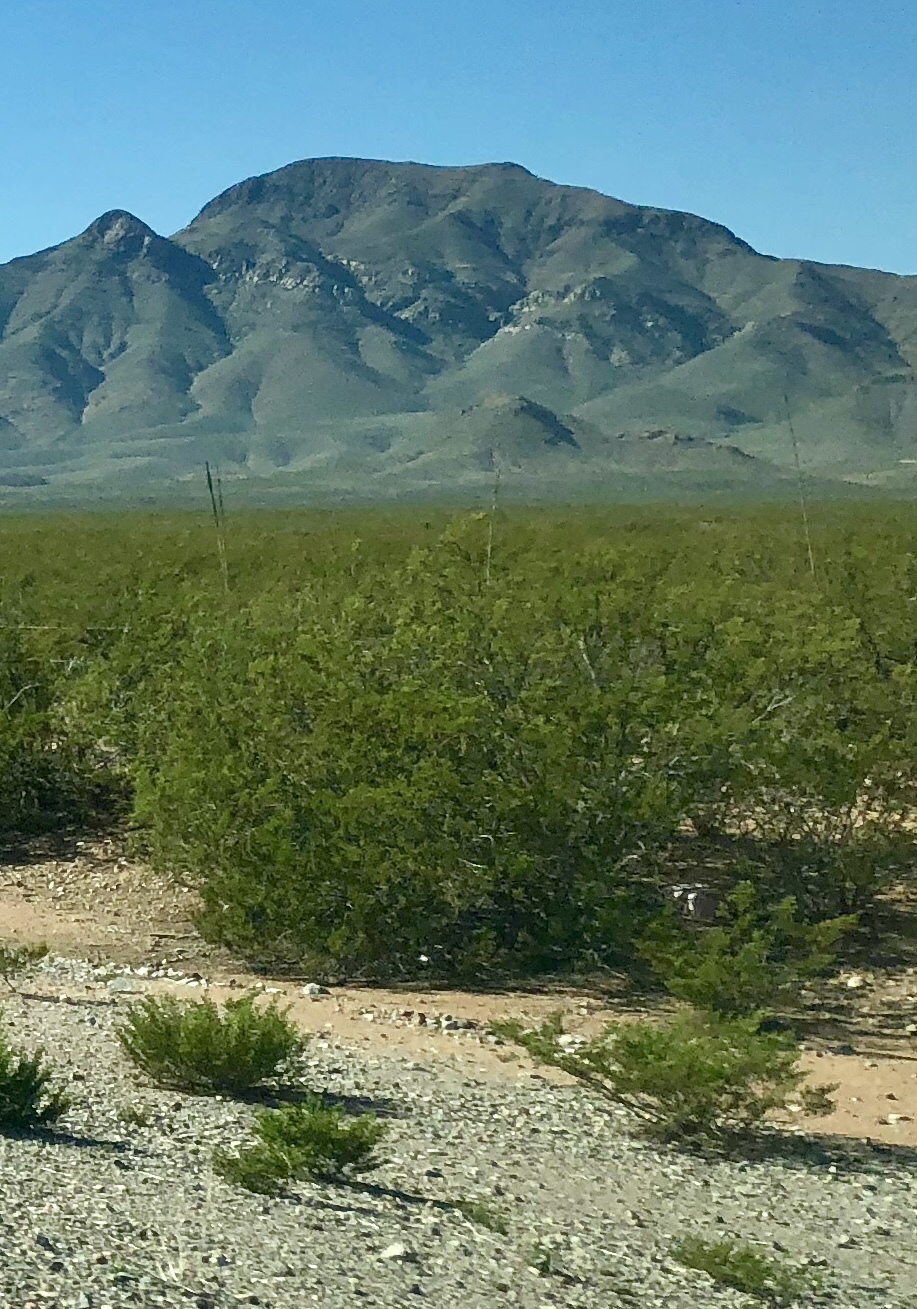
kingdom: Plantae
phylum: Tracheophyta
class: Magnoliopsida
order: Zygophyllales
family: Zygophyllaceae
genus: Larrea
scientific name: Larrea tridentata
